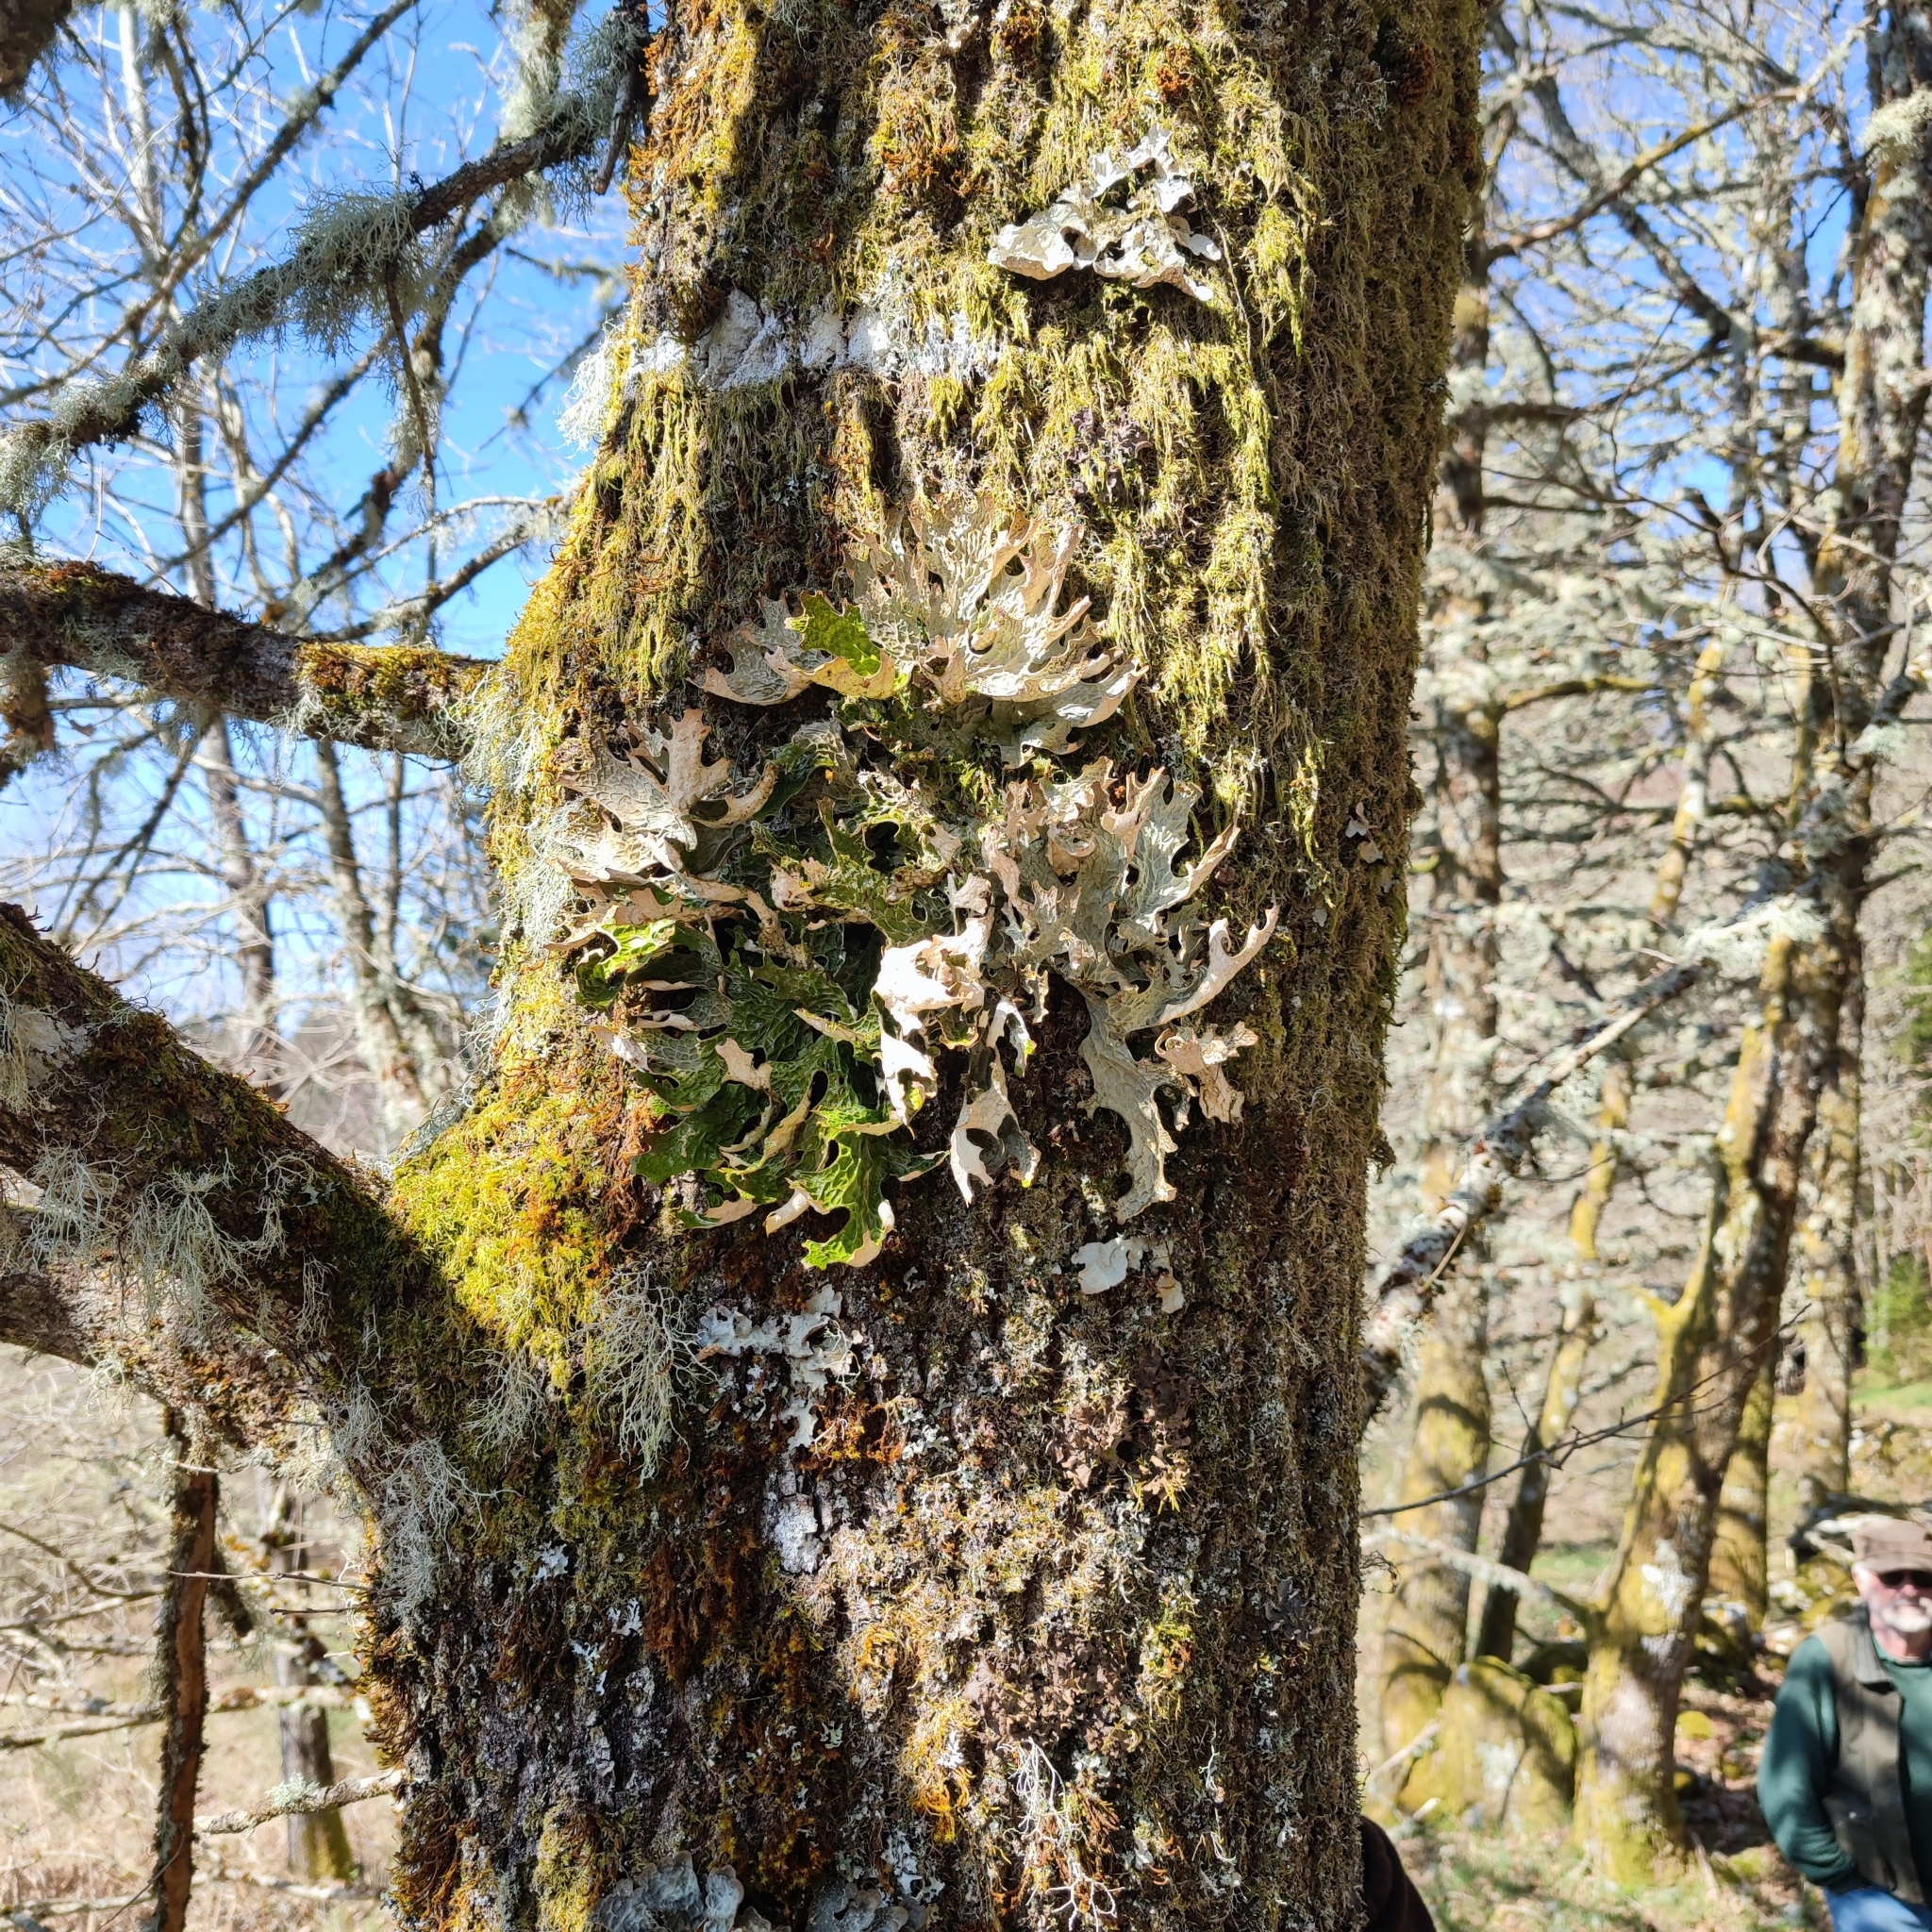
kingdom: Fungi
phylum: Ascomycota
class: Lecanoromycetes
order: Peltigerales
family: Lobariaceae
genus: Lobaria
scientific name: Lobaria pulmonaria
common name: Lungwort
